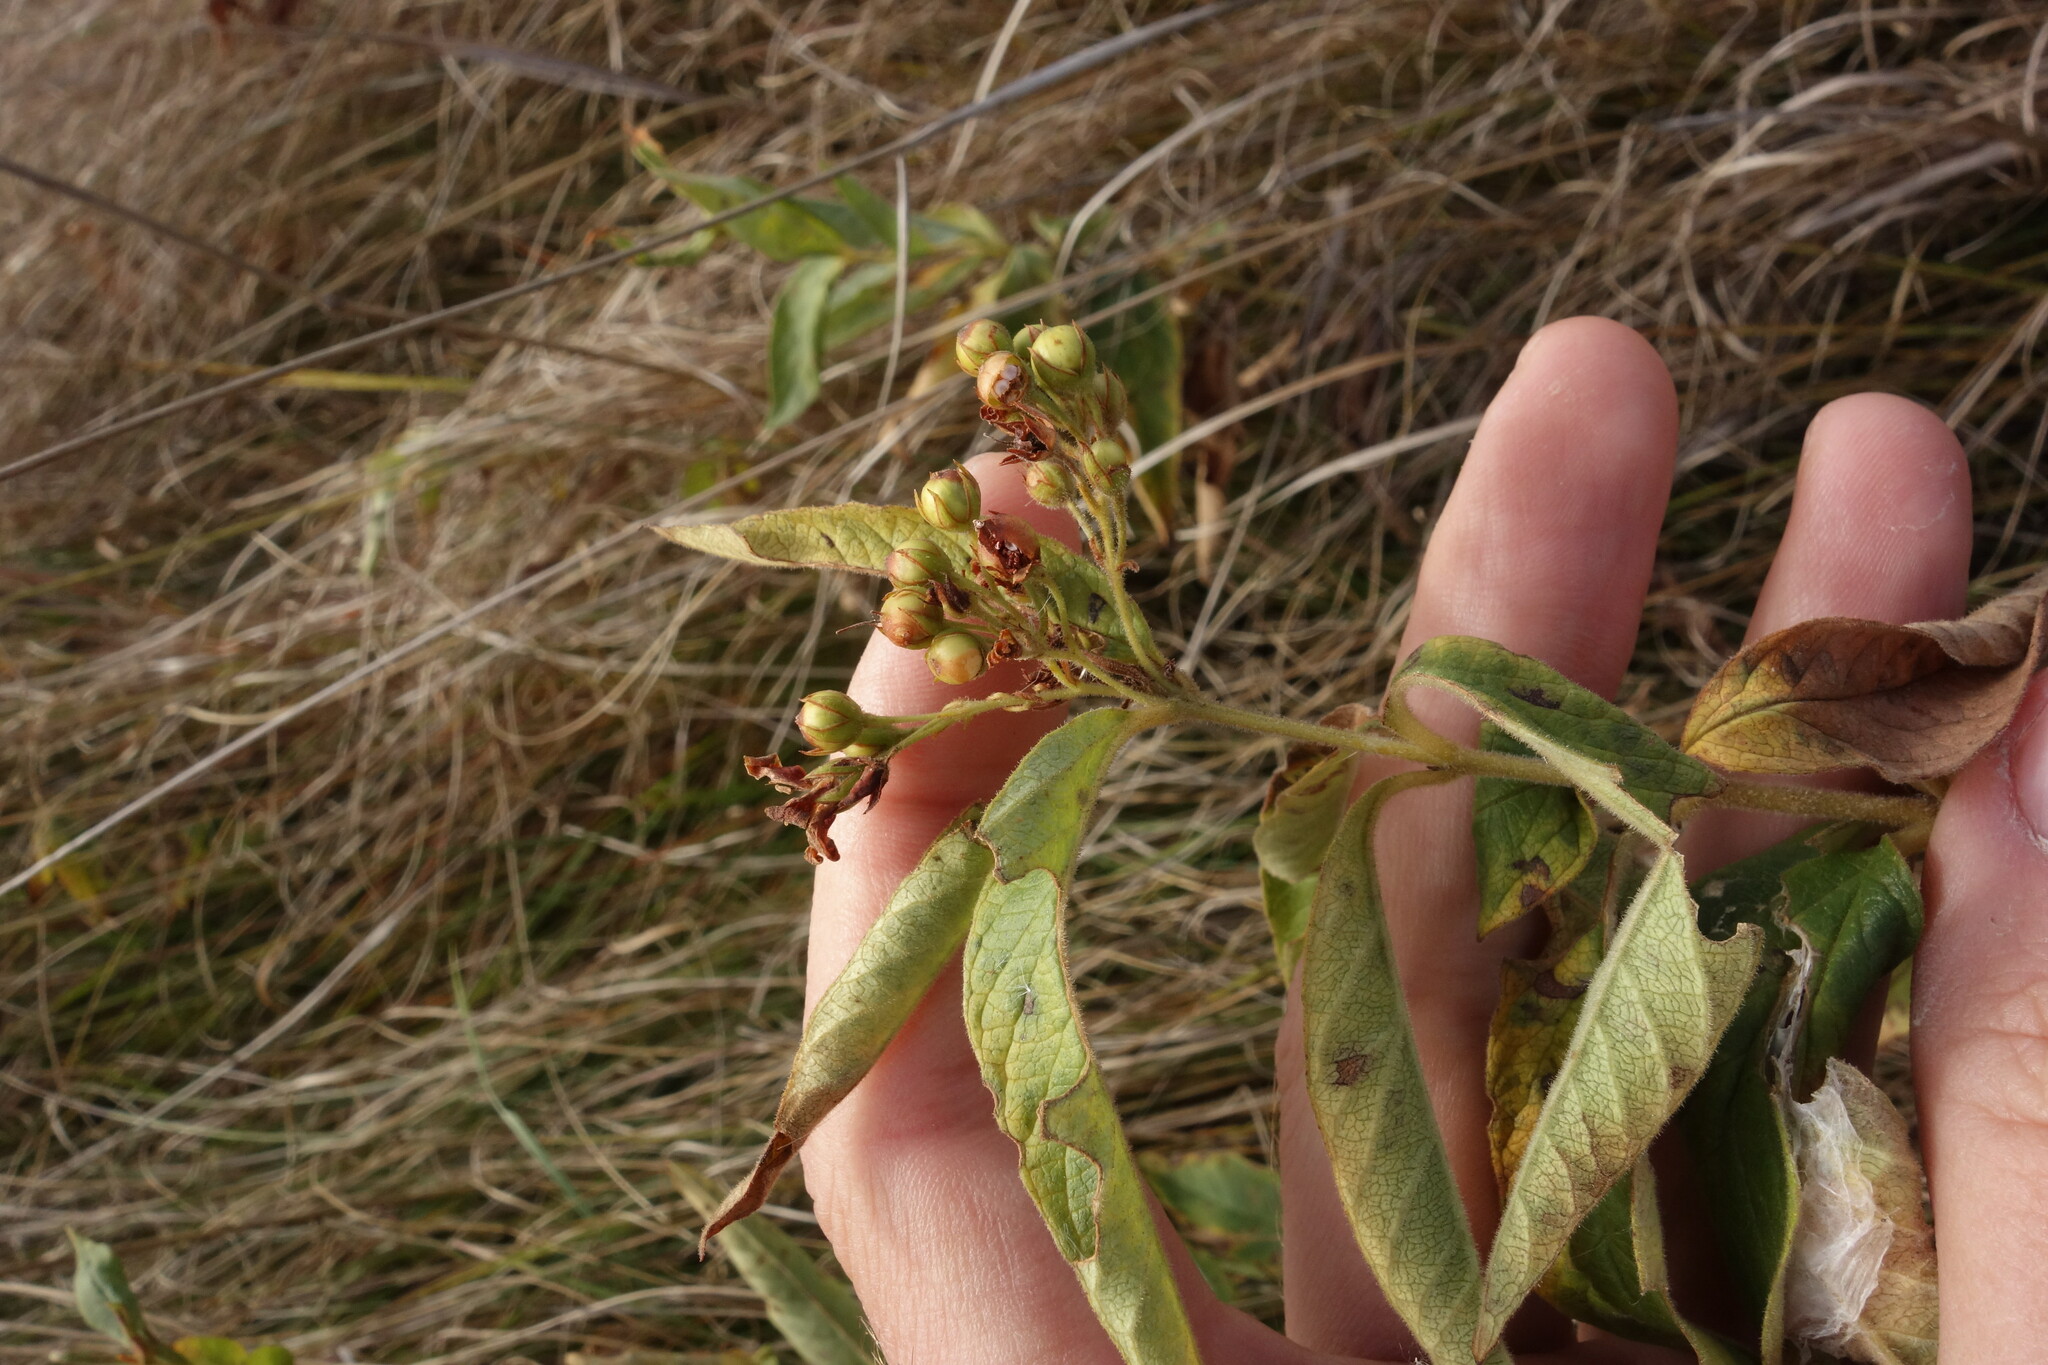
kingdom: Plantae
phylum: Tracheophyta
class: Magnoliopsida
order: Ericales
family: Primulaceae
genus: Lysimachia
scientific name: Lysimachia vulgaris
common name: Yellow loosestrife
